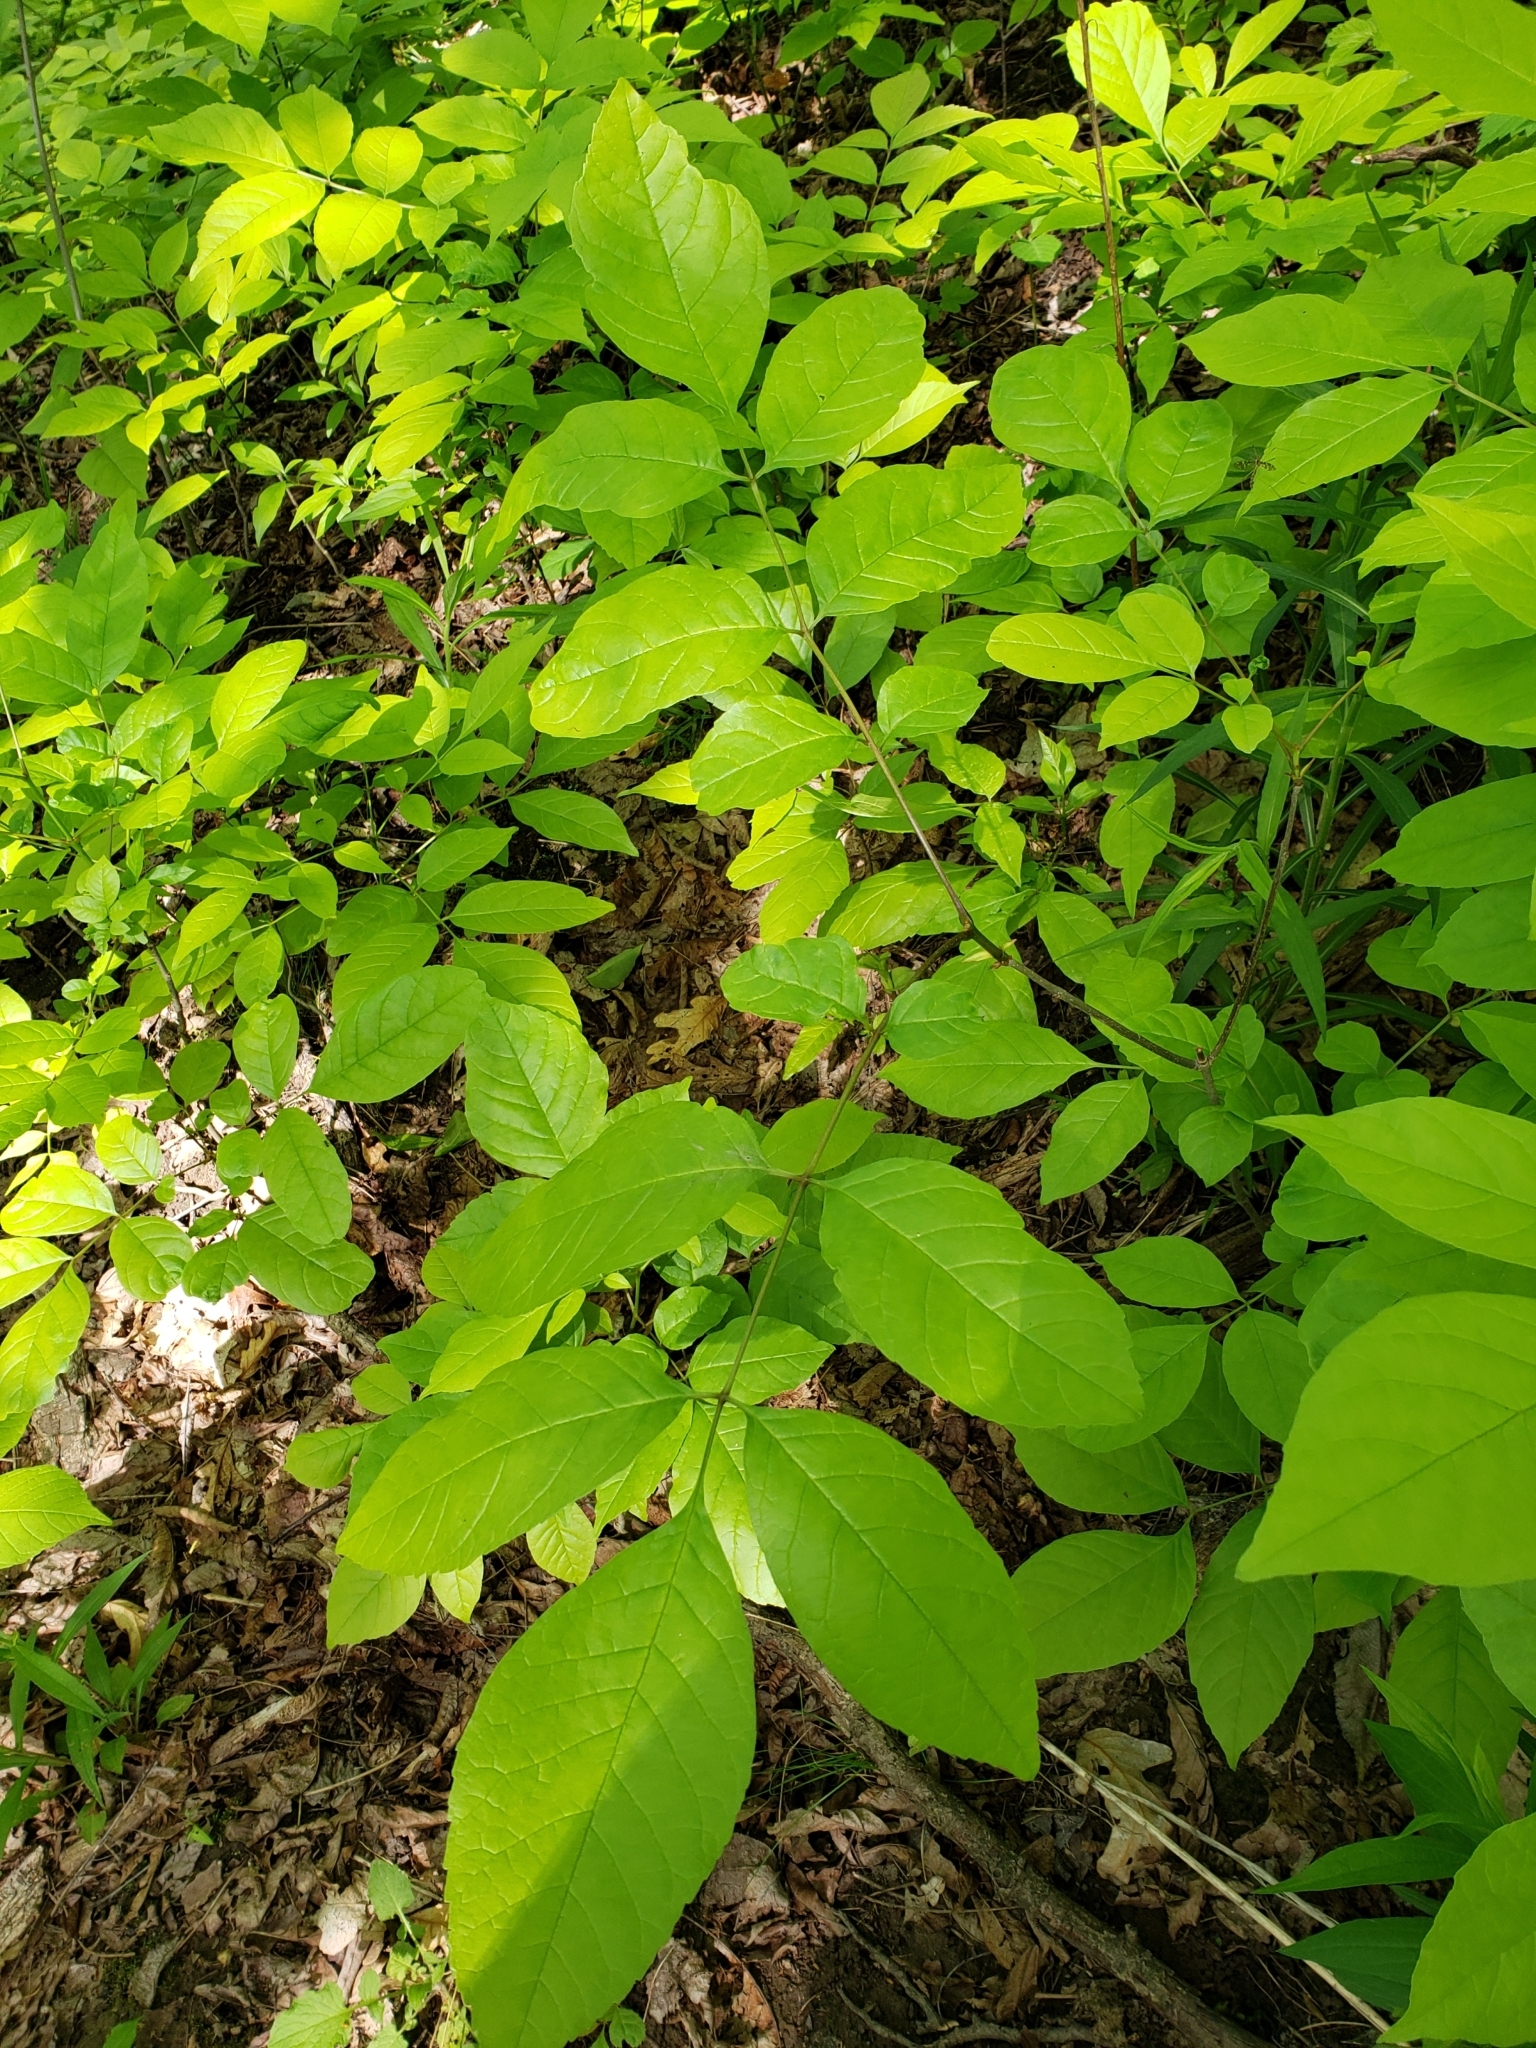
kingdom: Plantae
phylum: Tracheophyta
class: Magnoliopsida
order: Lamiales
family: Oleaceae
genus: Fraxinus
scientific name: Fraxinus americana
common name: White ash
